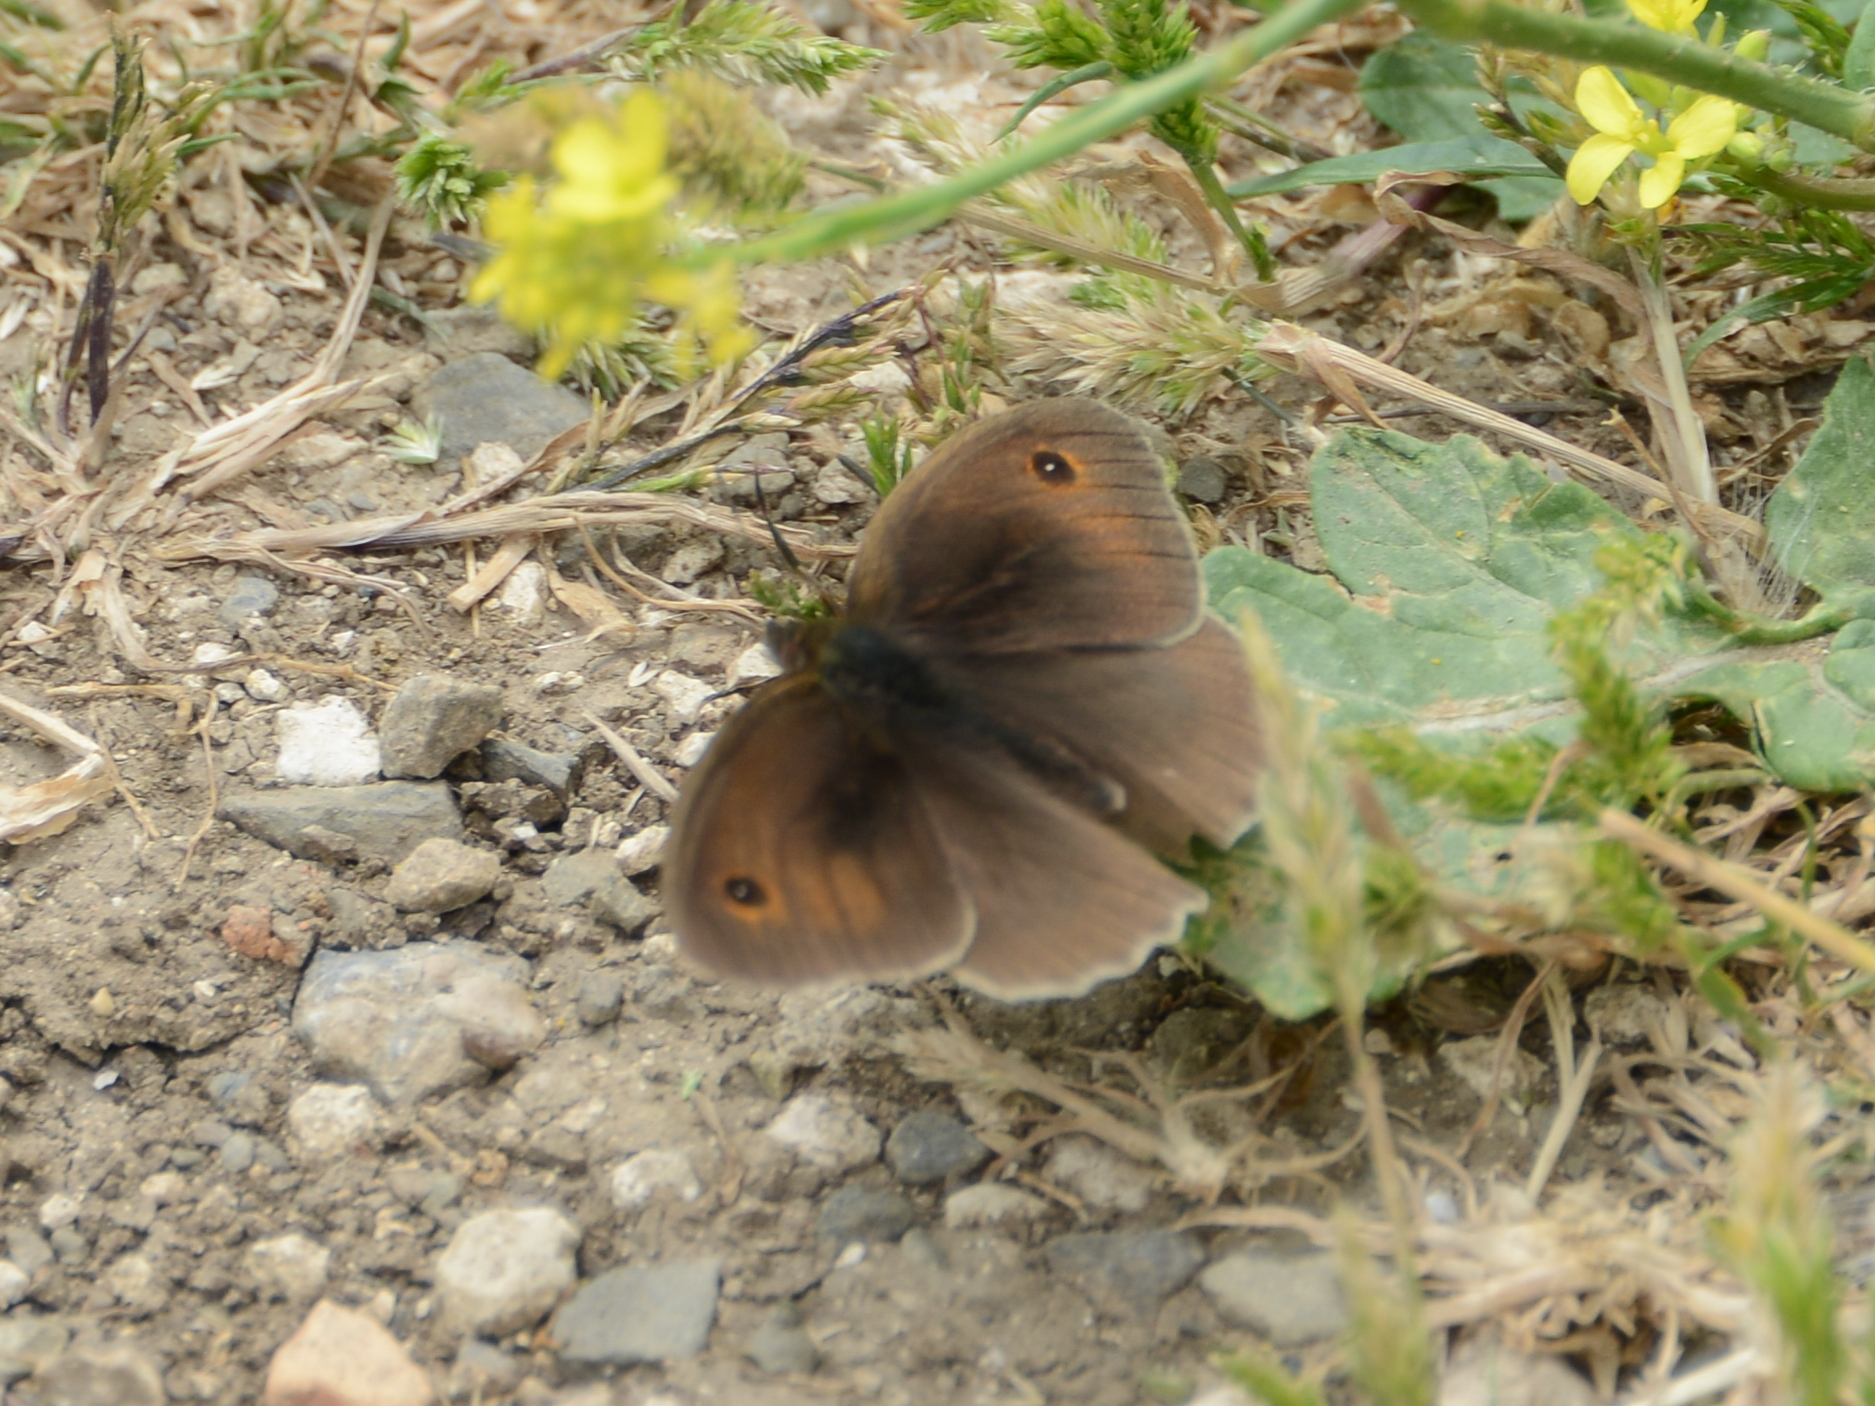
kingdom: Animalia
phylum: Arthropoda
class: Insecta
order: Lepidoptera
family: Nymphalidae
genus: Maniola
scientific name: Maniola jurtina
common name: Meadow brown
